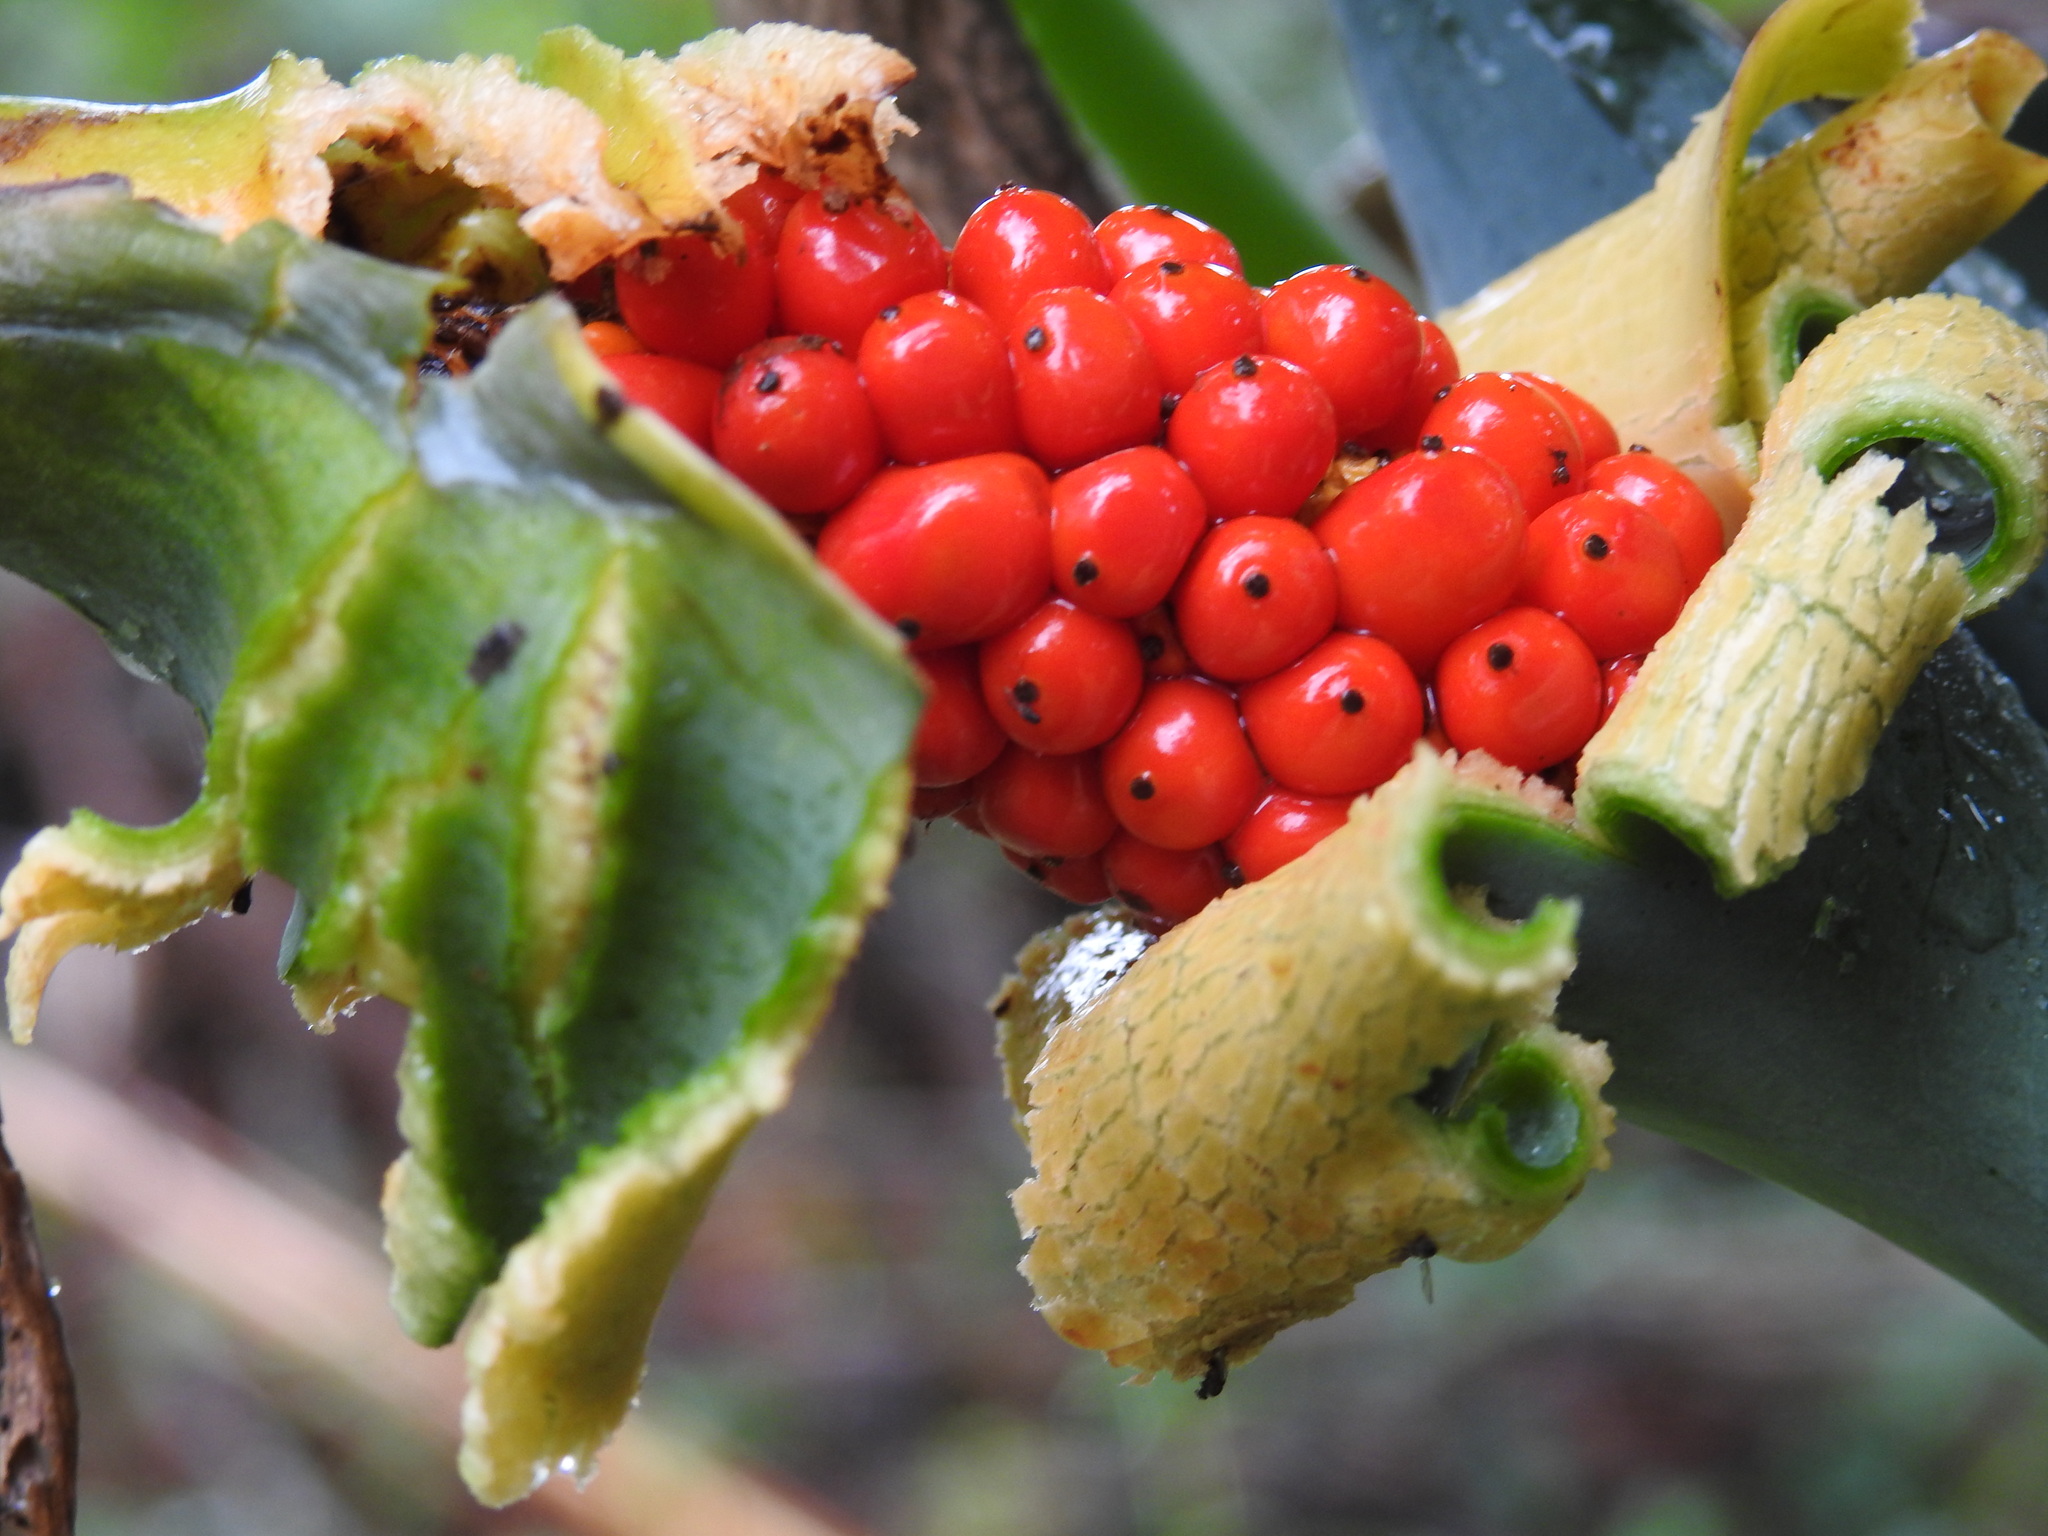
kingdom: Plantae
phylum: Tracheophyta
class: Liliopsida
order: Alismatales
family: Araceae
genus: Alocasia
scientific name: Alocasia odora
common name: Asian taro
